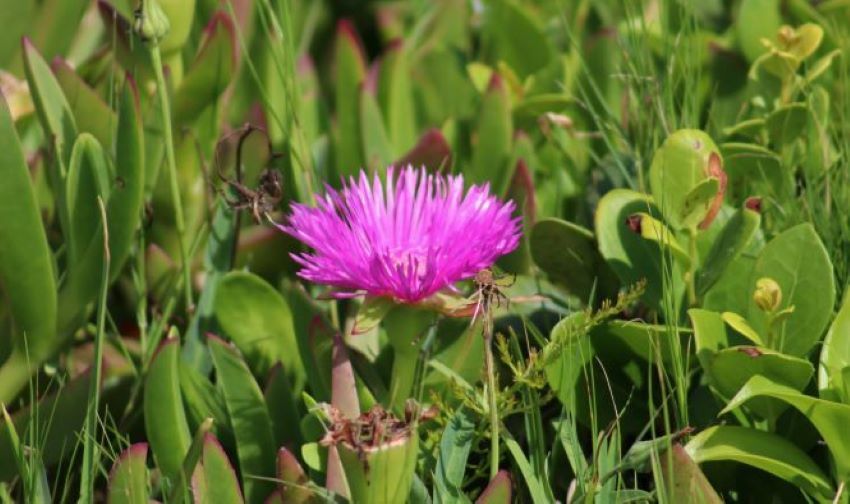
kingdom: Plantae
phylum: Tracheophyta
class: Magnoliopsida
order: Caryophyllales
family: Aizoaceae
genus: Carpobrotus
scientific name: Carpobrotus deliciosus
